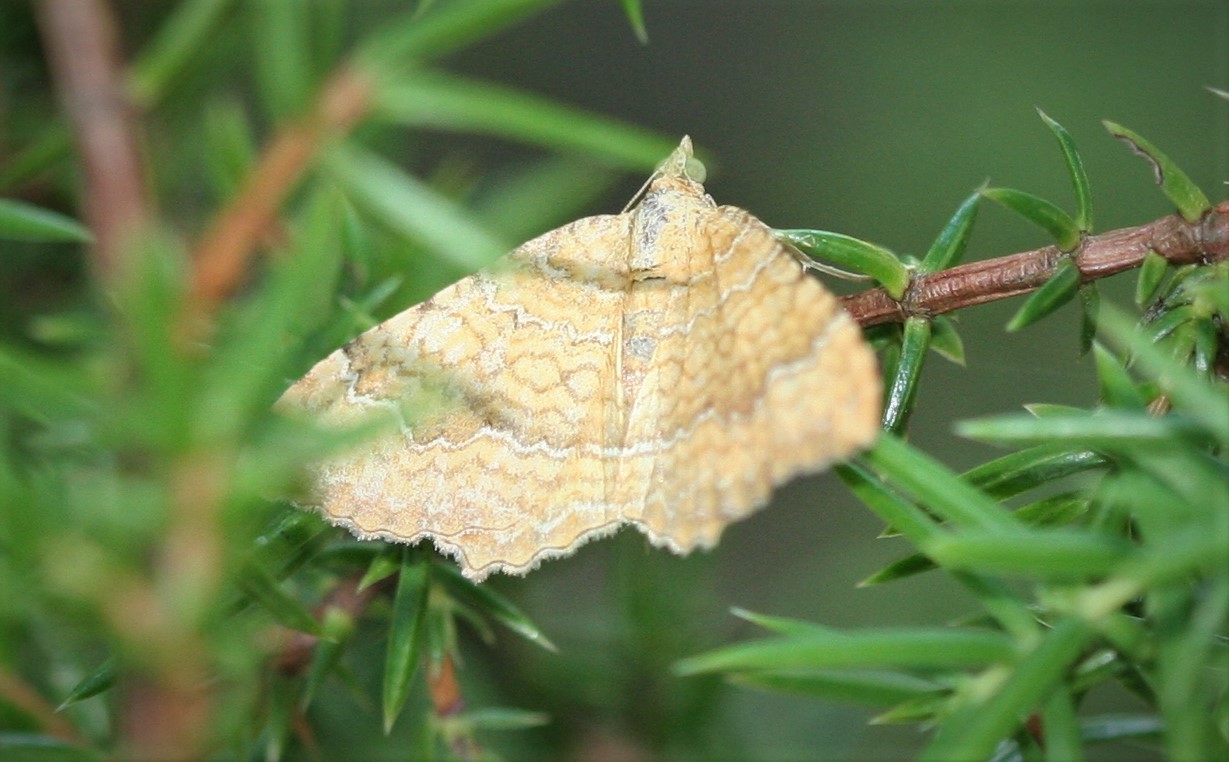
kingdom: Animalia
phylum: Arthropoda
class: Insecta
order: Lepidoptera
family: Geometridae
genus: Camptogramma
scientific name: Camptogramma bilineata
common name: Yellow shell
